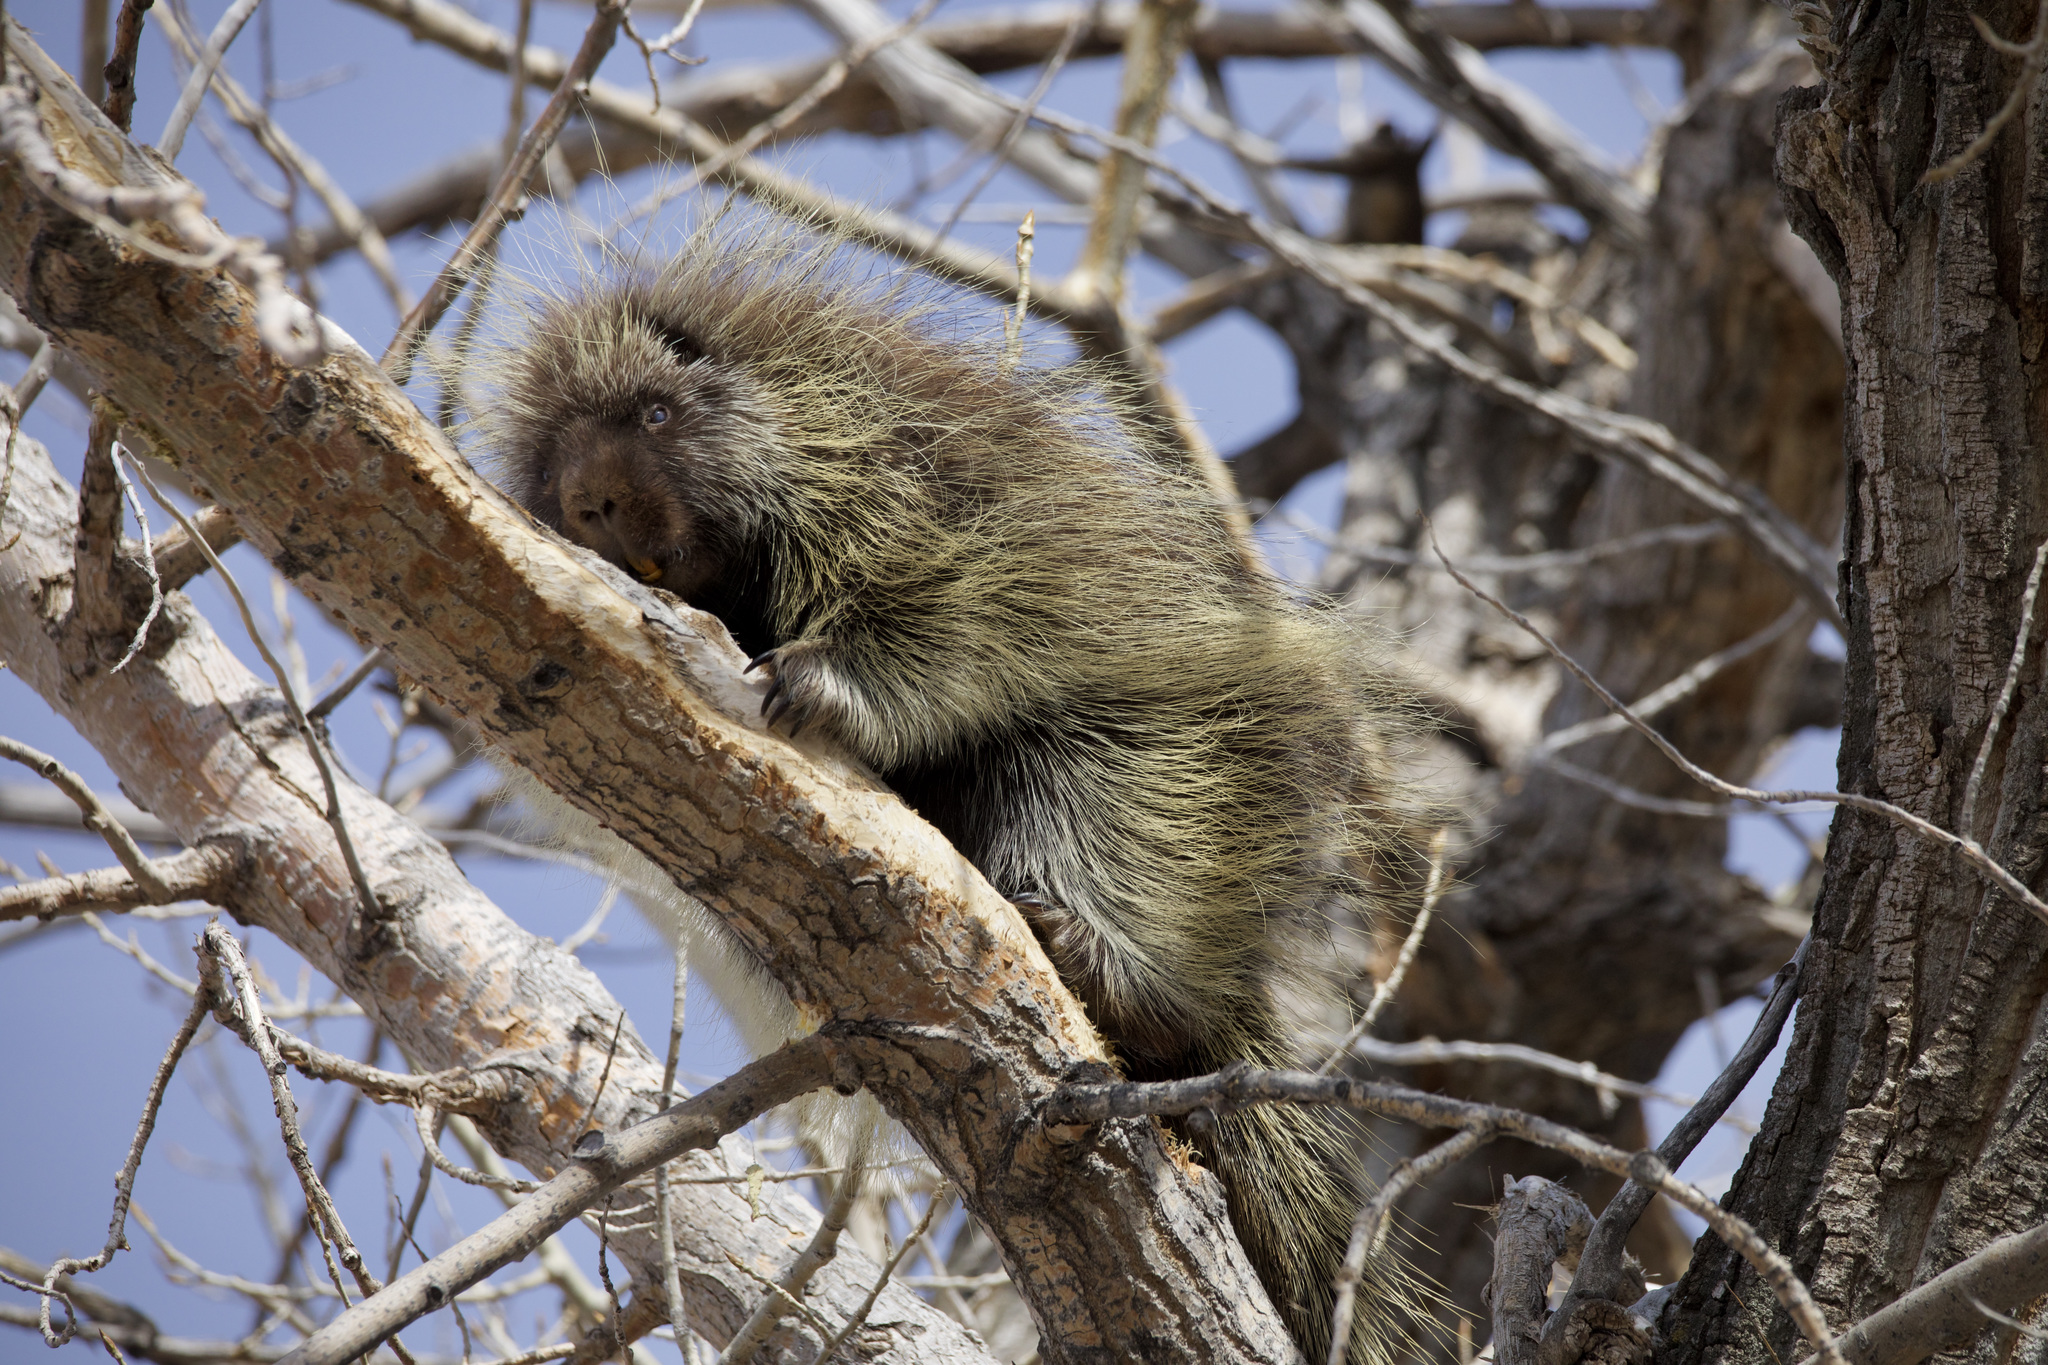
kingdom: Animalia
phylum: Chordata
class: Mammalia
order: Rodentia
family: Erethizontidae
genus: Erethizon
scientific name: Erethizon dorsatus
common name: North american porcupine
